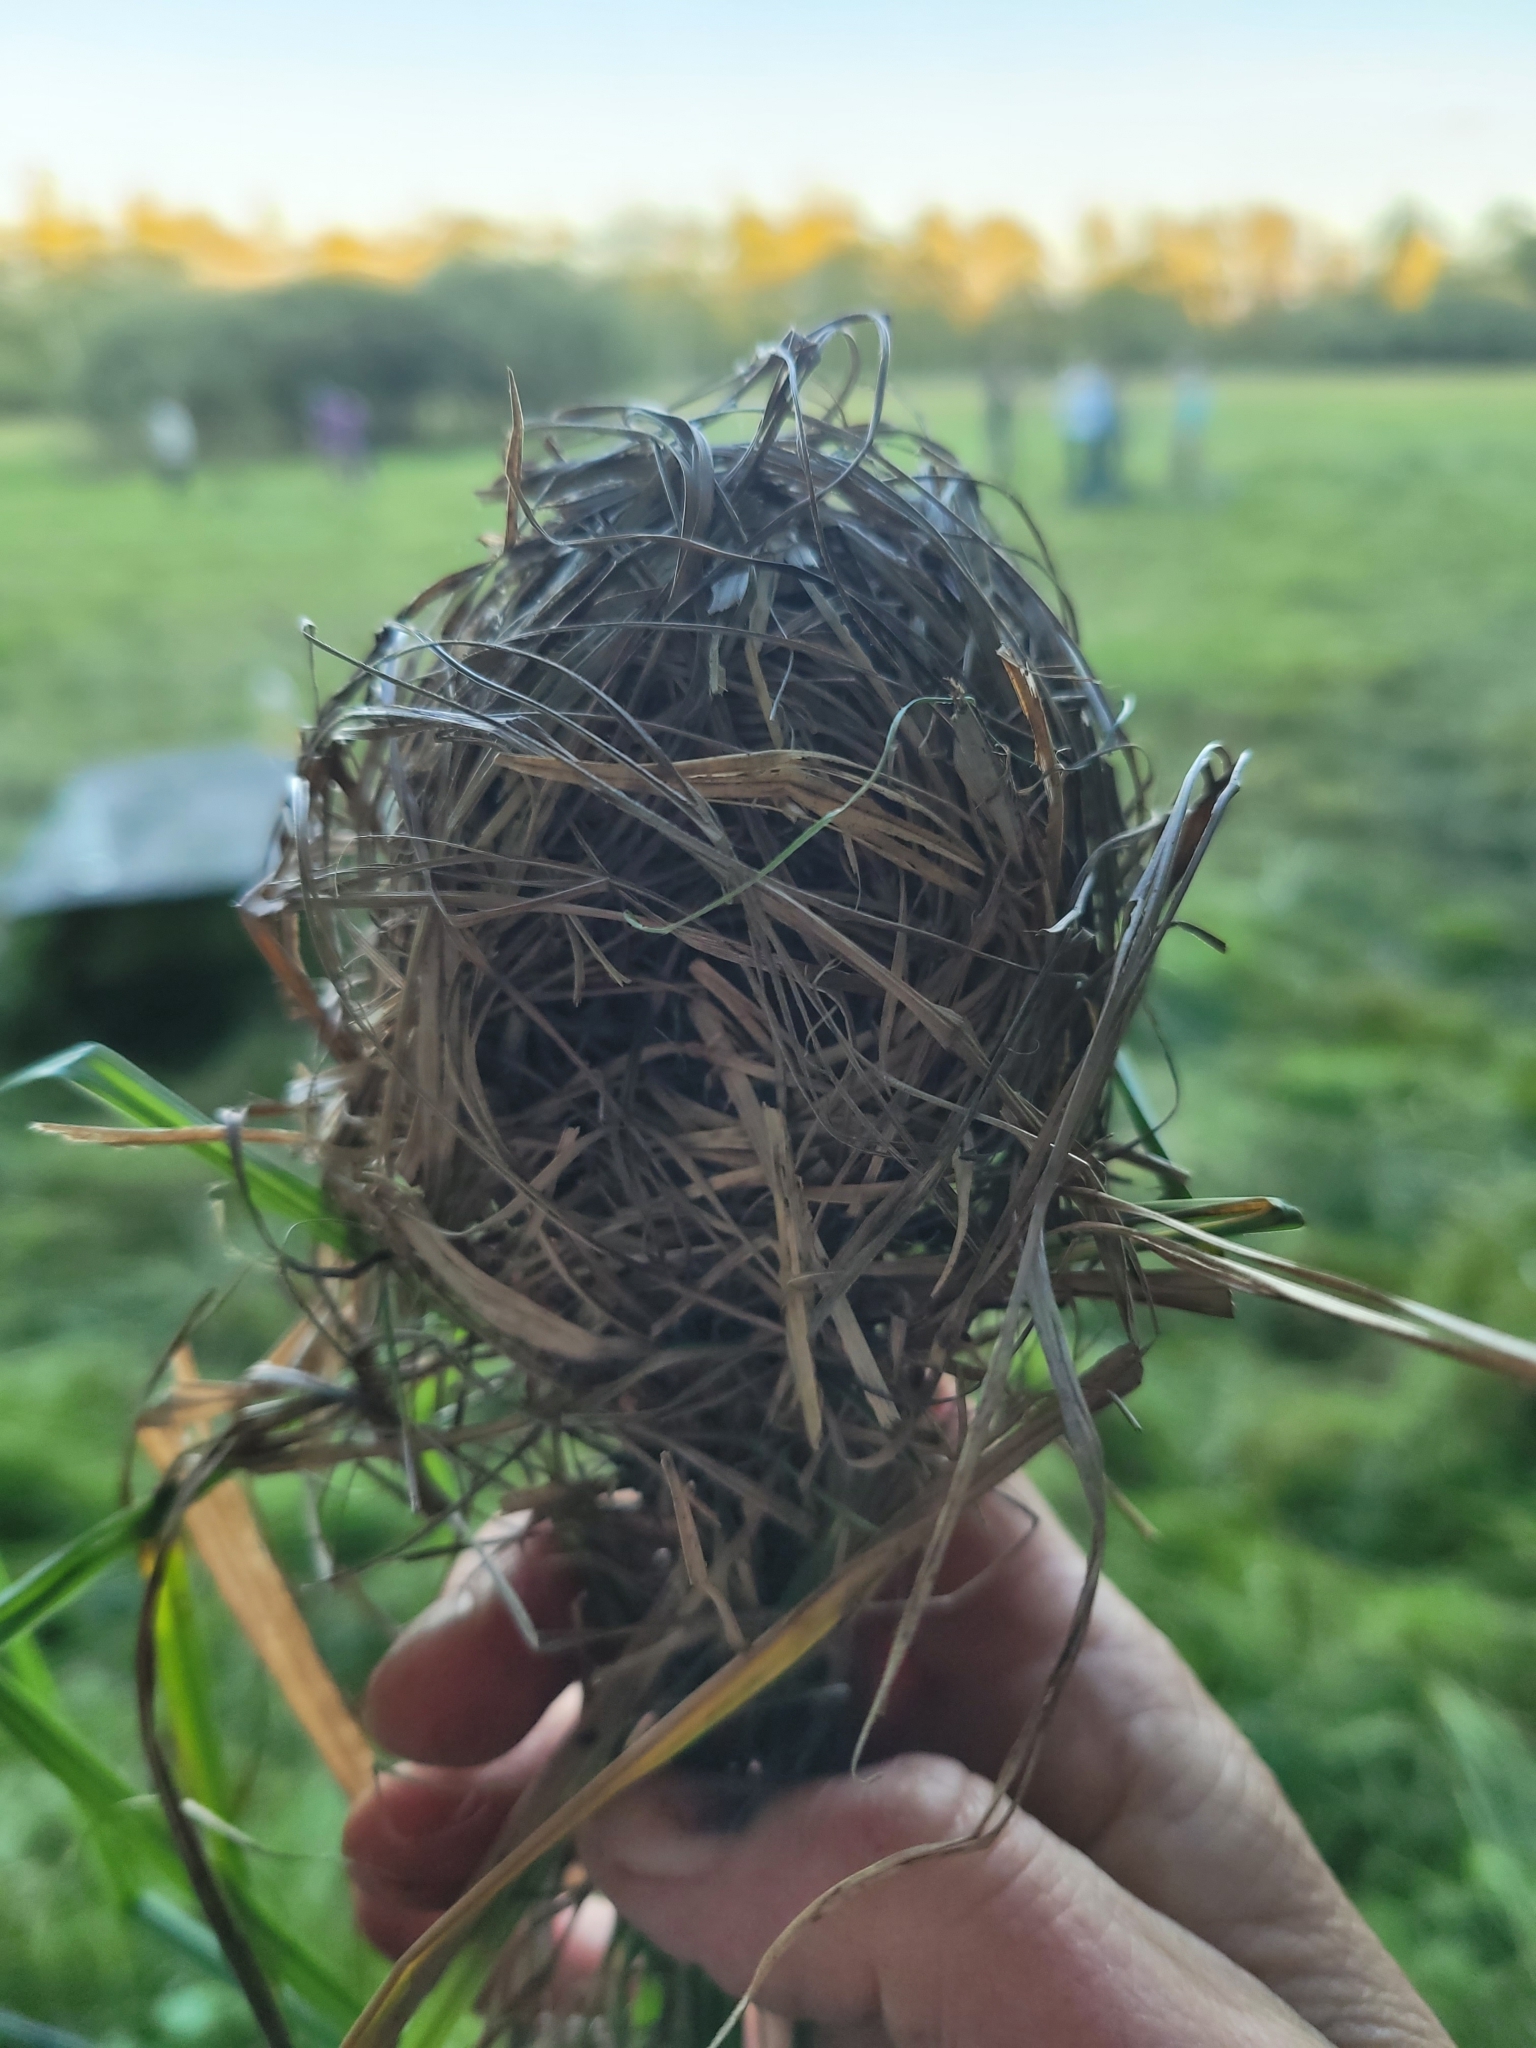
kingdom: Animalia
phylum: Chordata
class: Mammalia
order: Rodentia
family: Muridae
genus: Micromys
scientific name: Micromys minutus
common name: Harvest mouse
